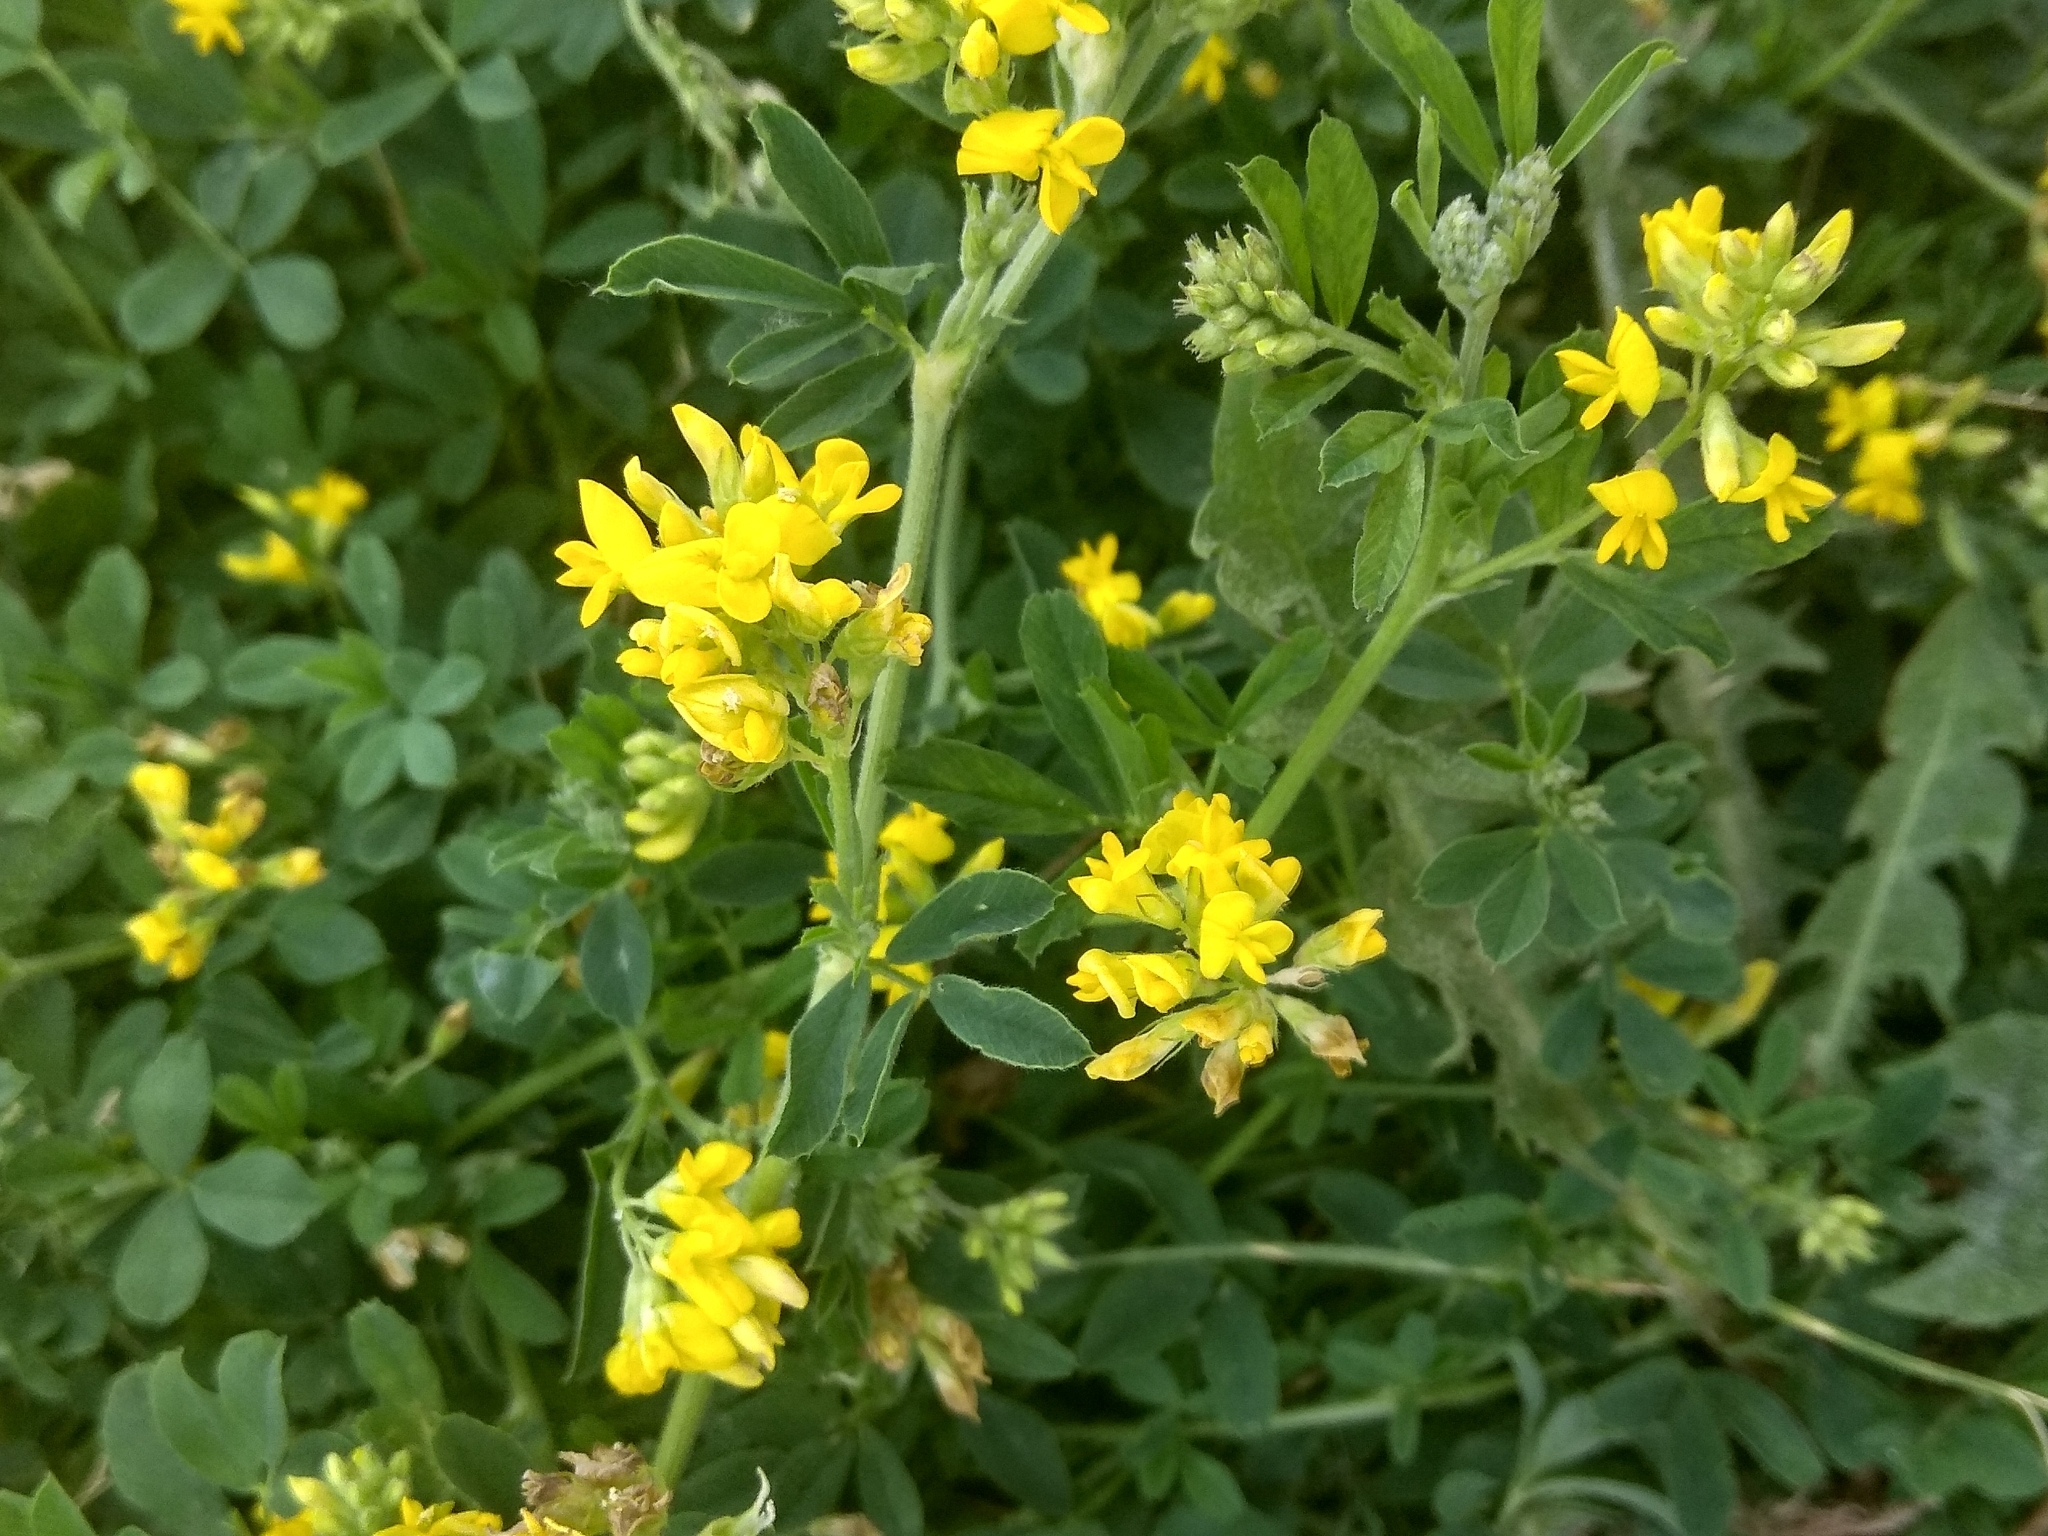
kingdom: Plantae
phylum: Tracheophyta
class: Magnoliopsida
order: Fabales
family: Fabaceae
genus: Medicago
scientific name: Medicago falcata
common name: Sickle medick
